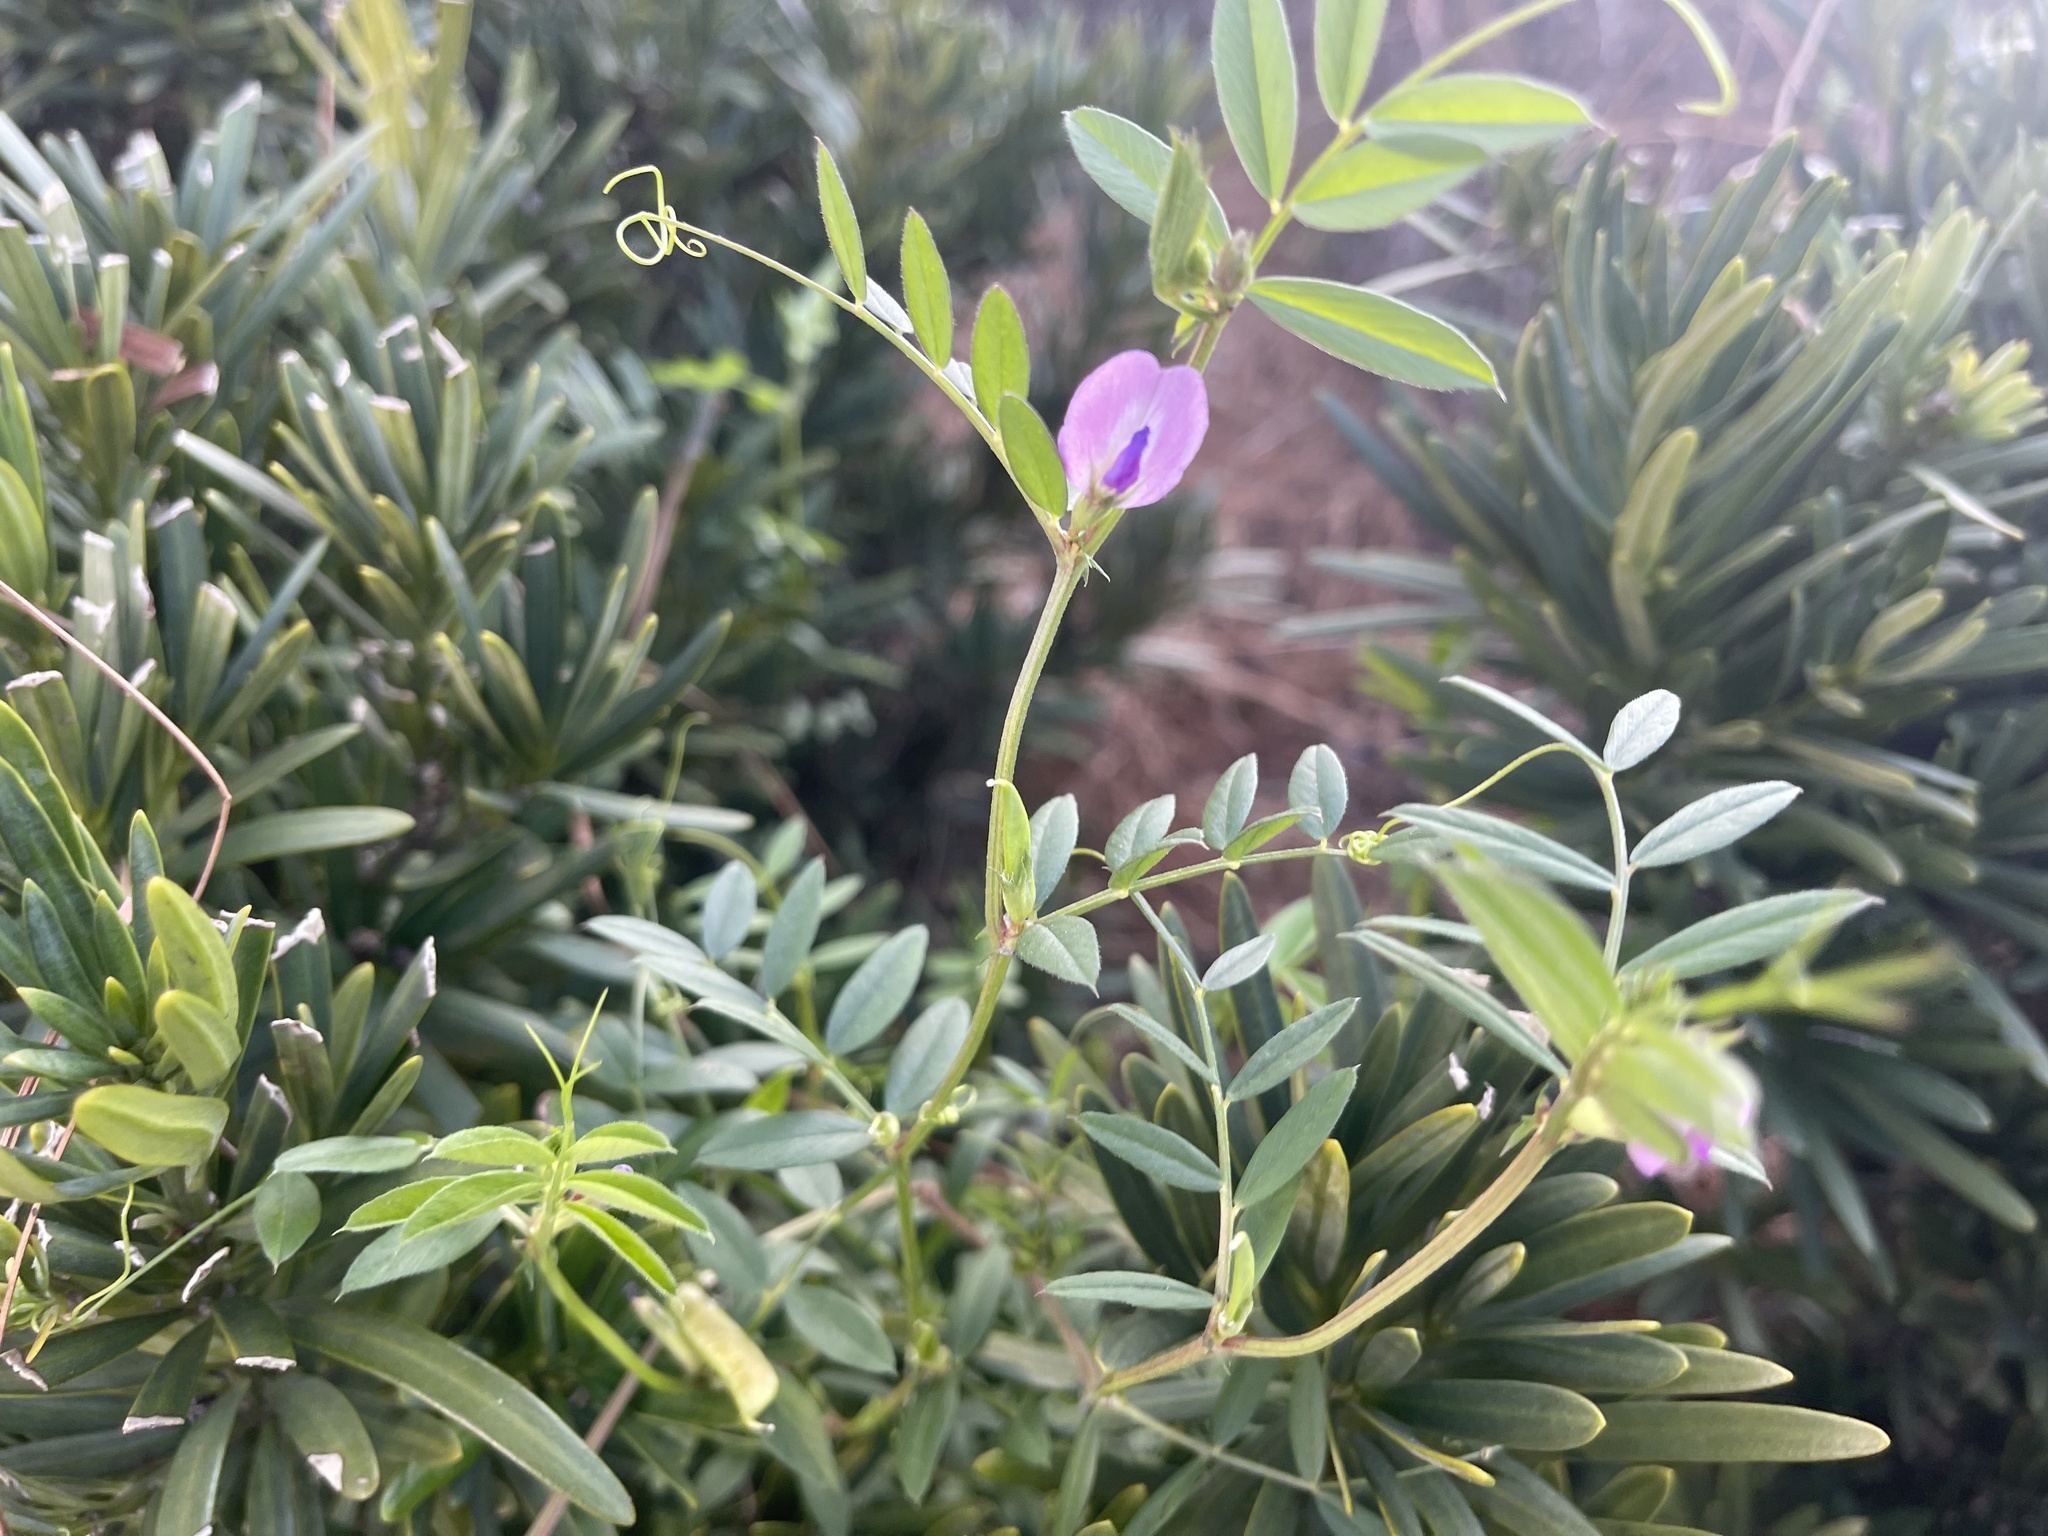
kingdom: Plantae
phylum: Tracheophyta
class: Magnoliopsida
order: Fabales
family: Fabaceae
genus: Vicia
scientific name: Vicia sativa
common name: Garden vetch
